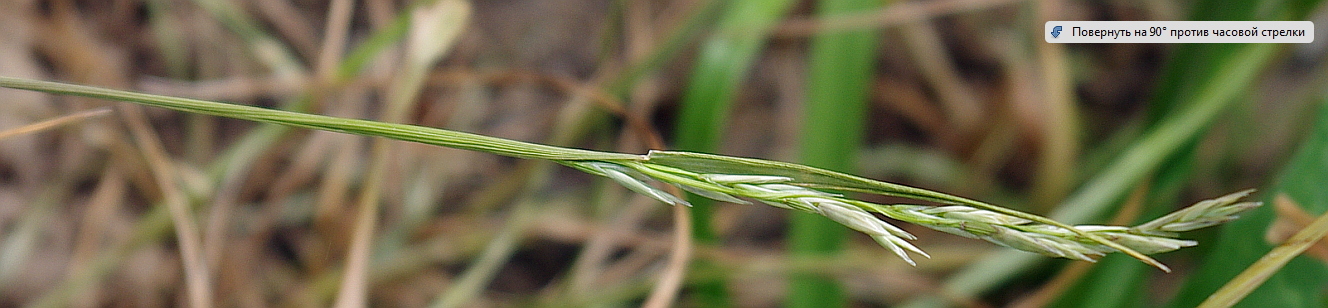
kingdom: Plantae
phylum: Tracheophyta
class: Liliopsida
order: Poales
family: Poaceae
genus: Lolium
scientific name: Lolium pratense
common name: Dover grass
